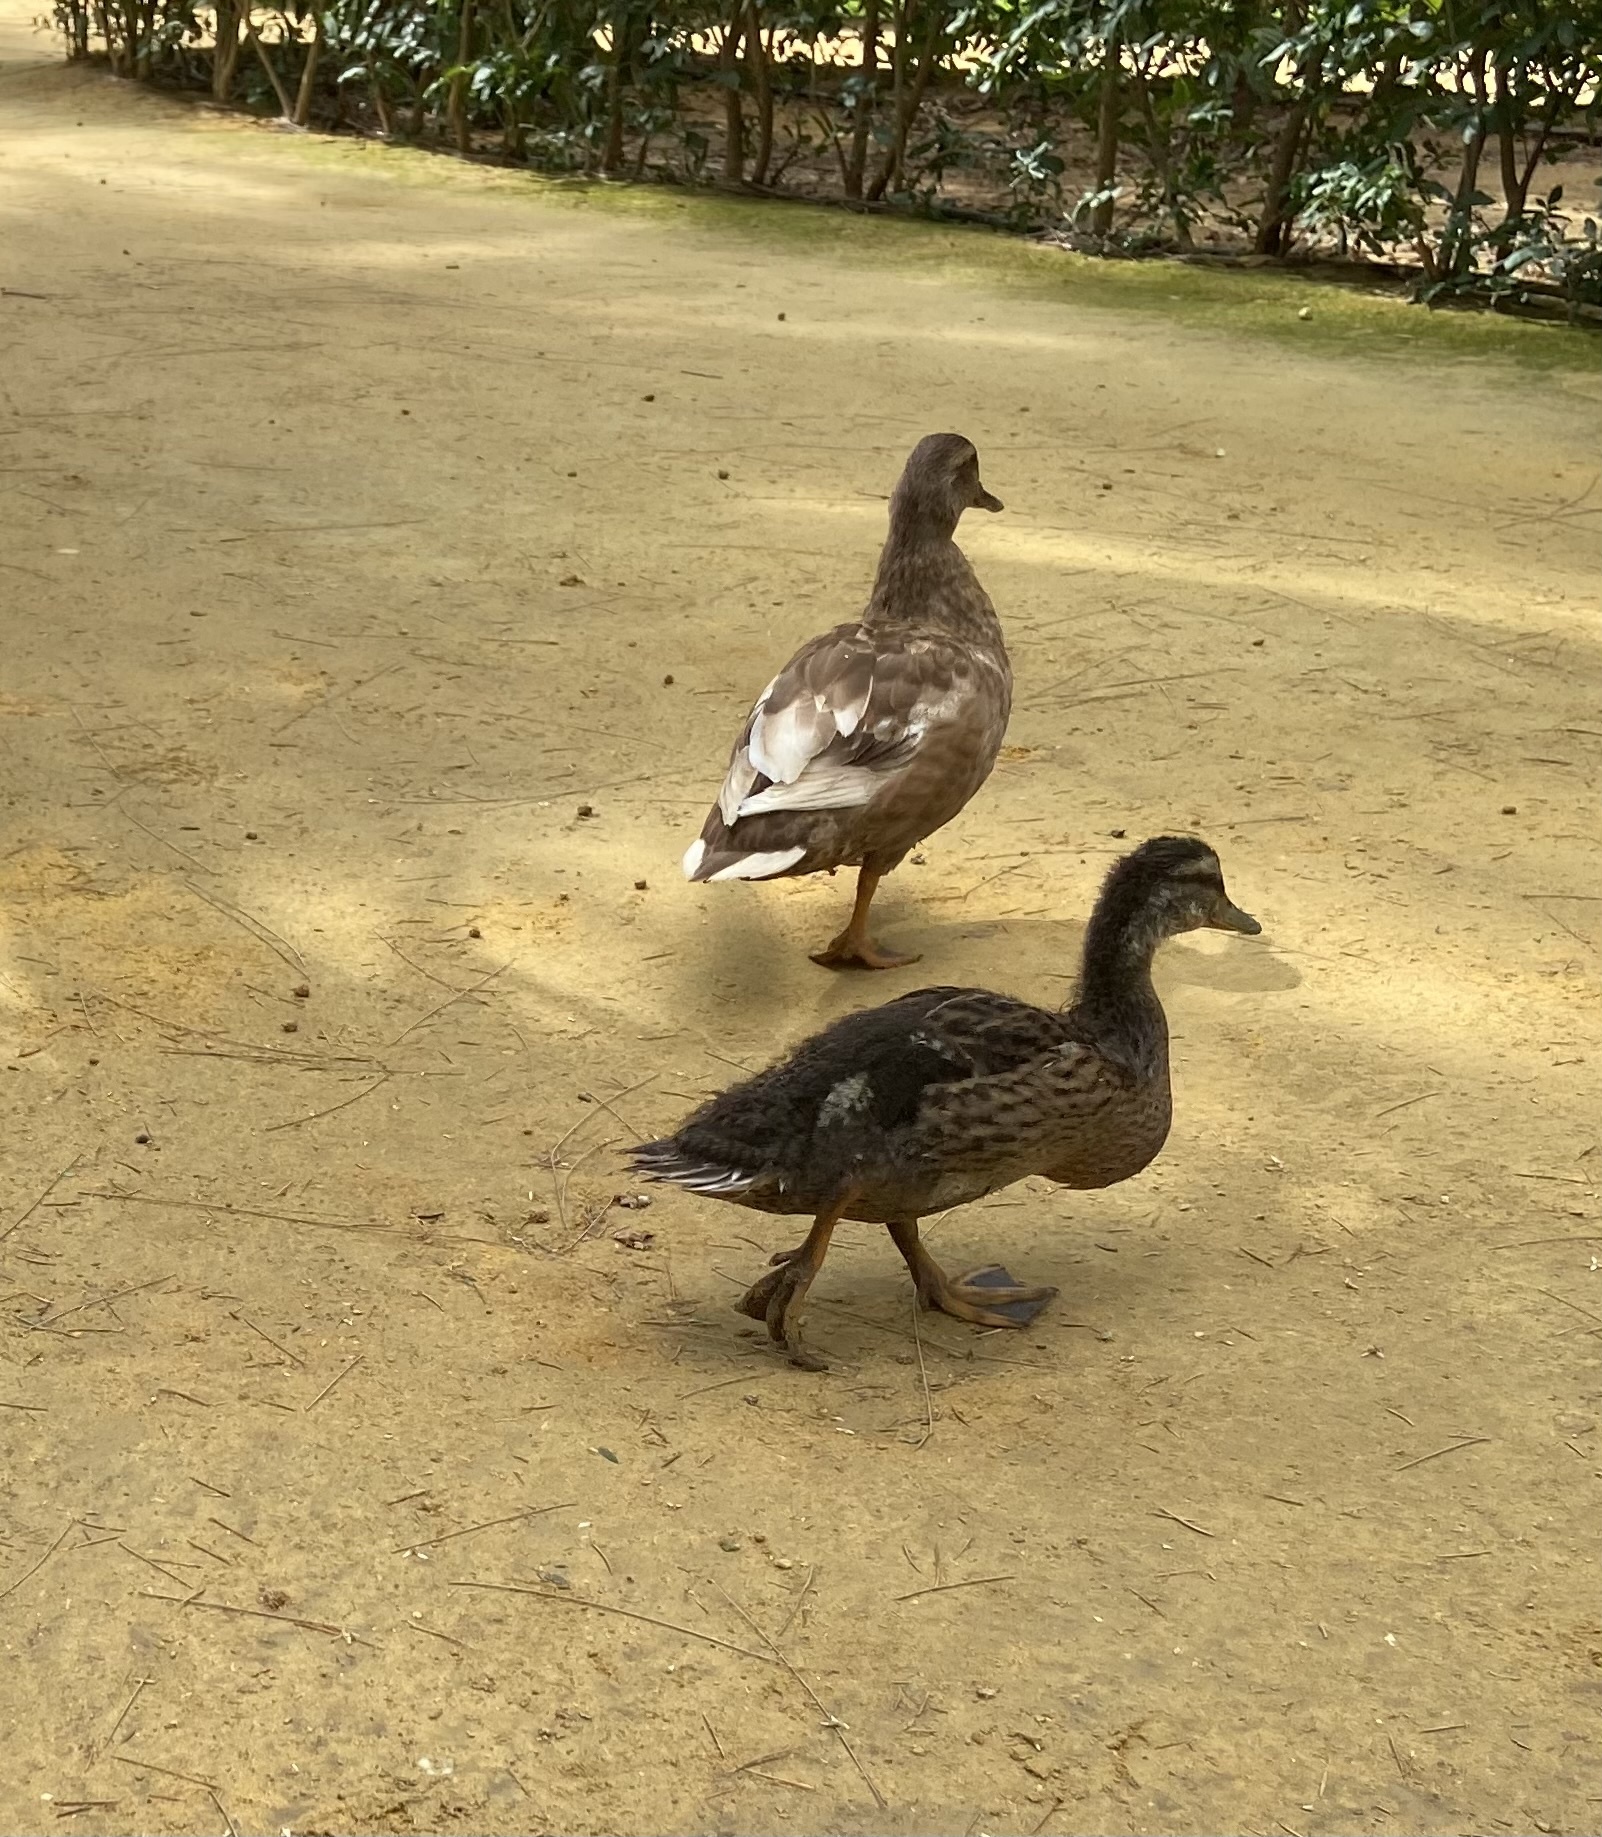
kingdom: Animalia
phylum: Chordata
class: Aves
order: Anseriformes
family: Anatidae
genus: Anas
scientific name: Anas platyrhynchos
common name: Mallard
